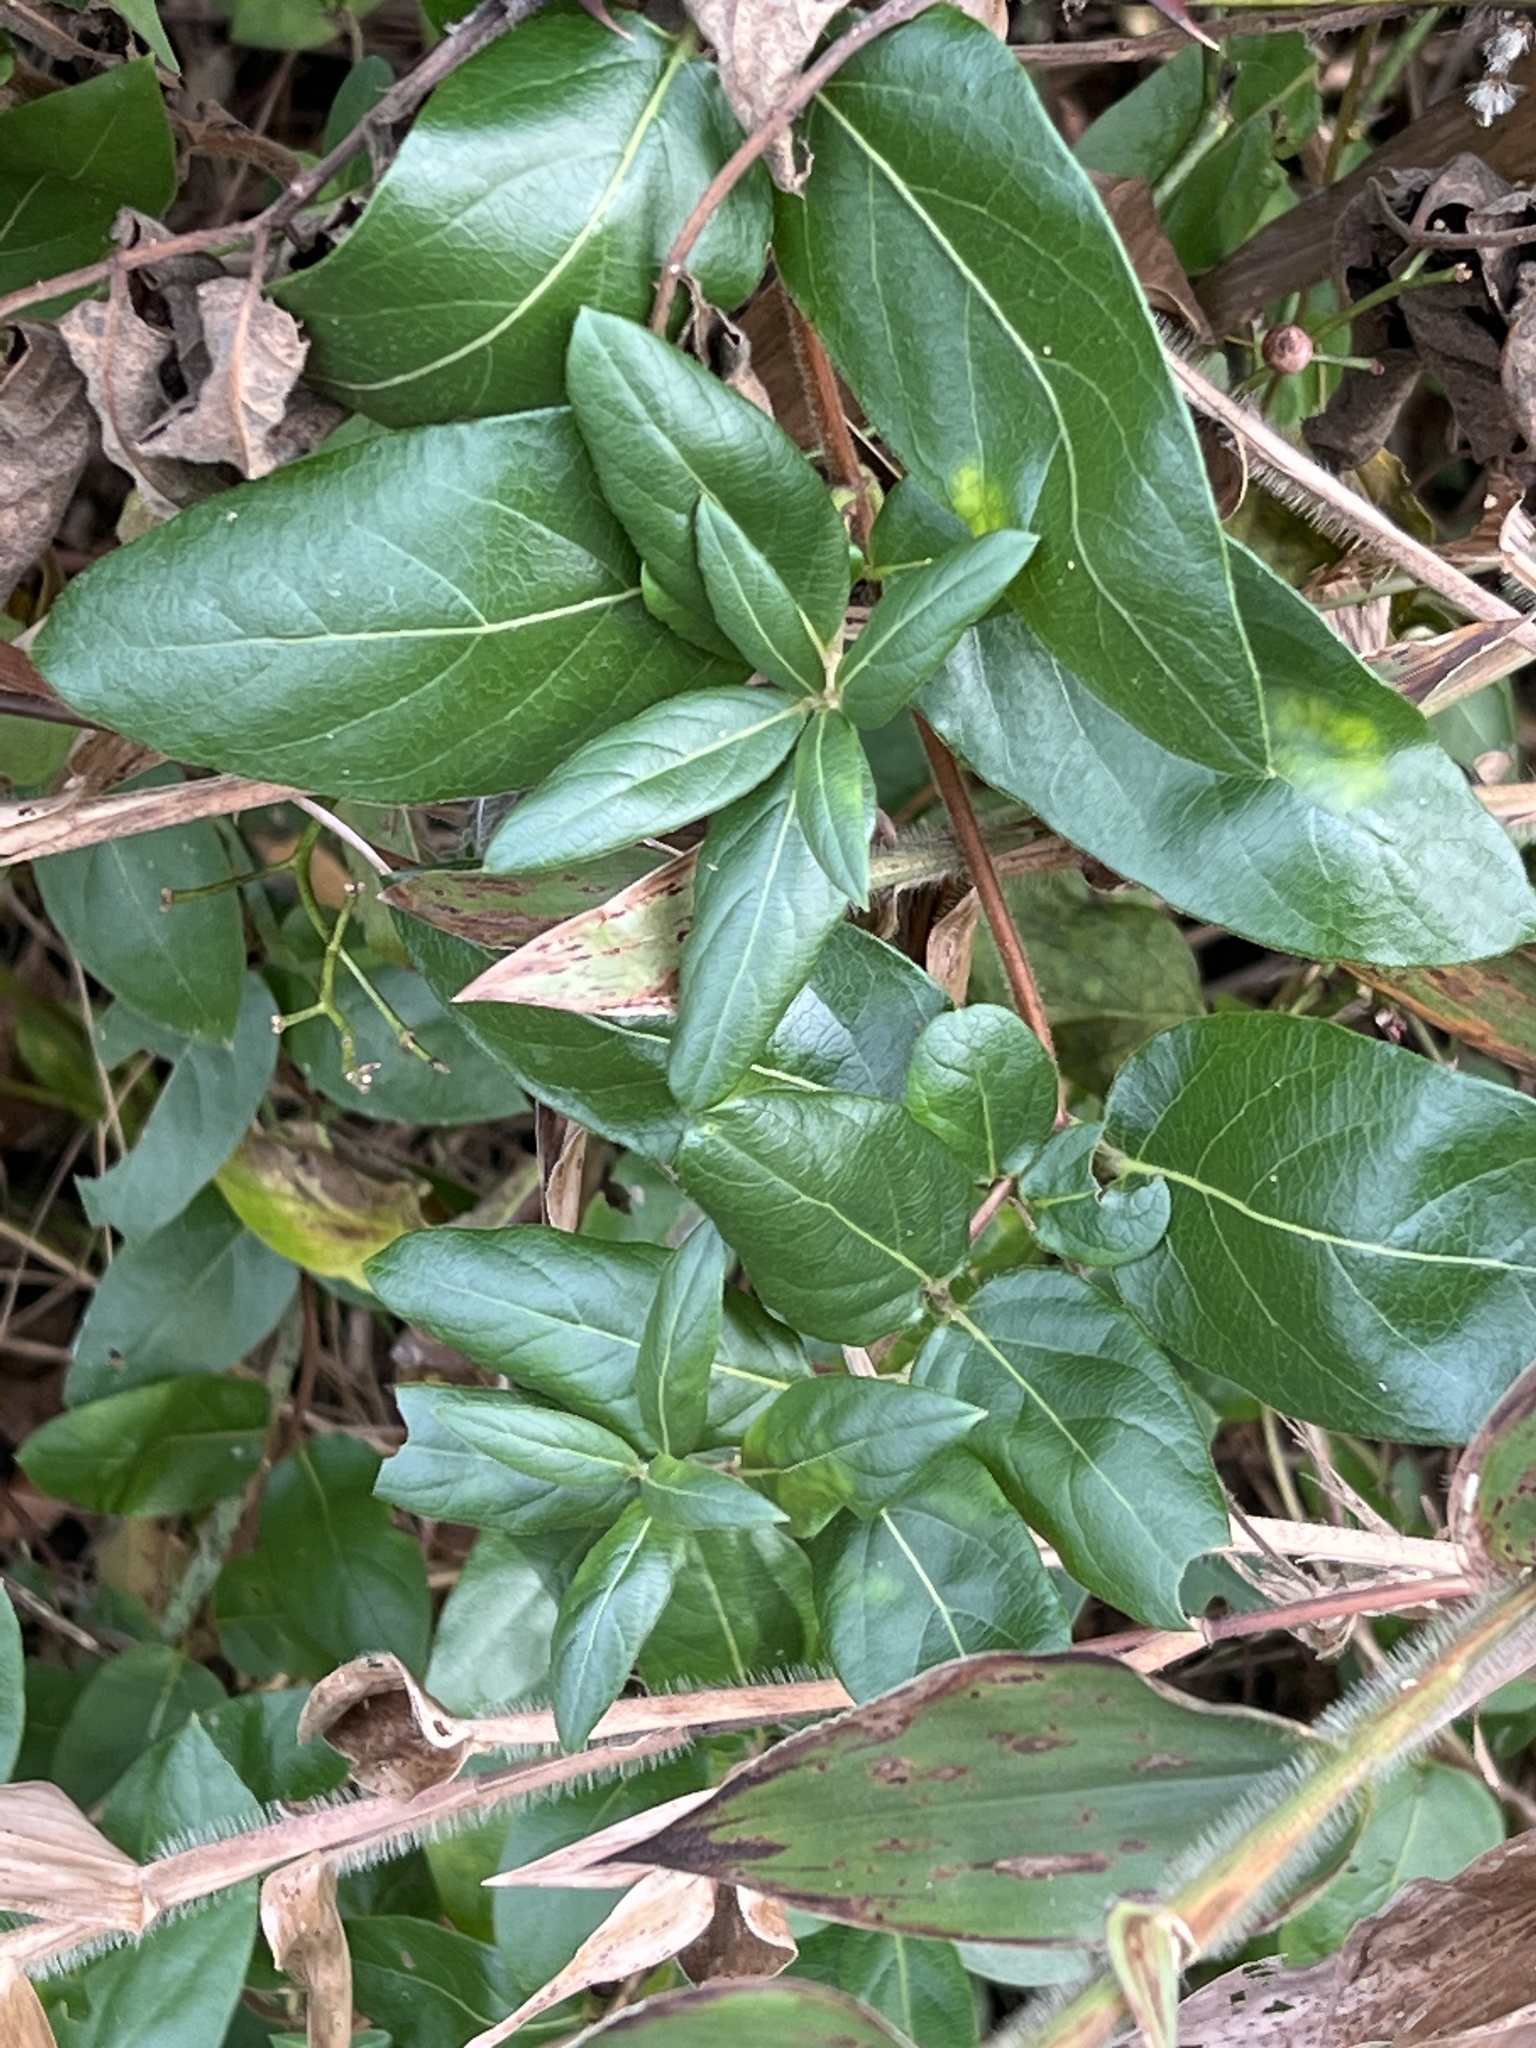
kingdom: Plantae
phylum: Tracheophyta
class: Magnoliopsida
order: Dipsacales
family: Caprifoliaceae
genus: Lonicera
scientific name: Lonicera japonica
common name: Japanese honeysuckle
